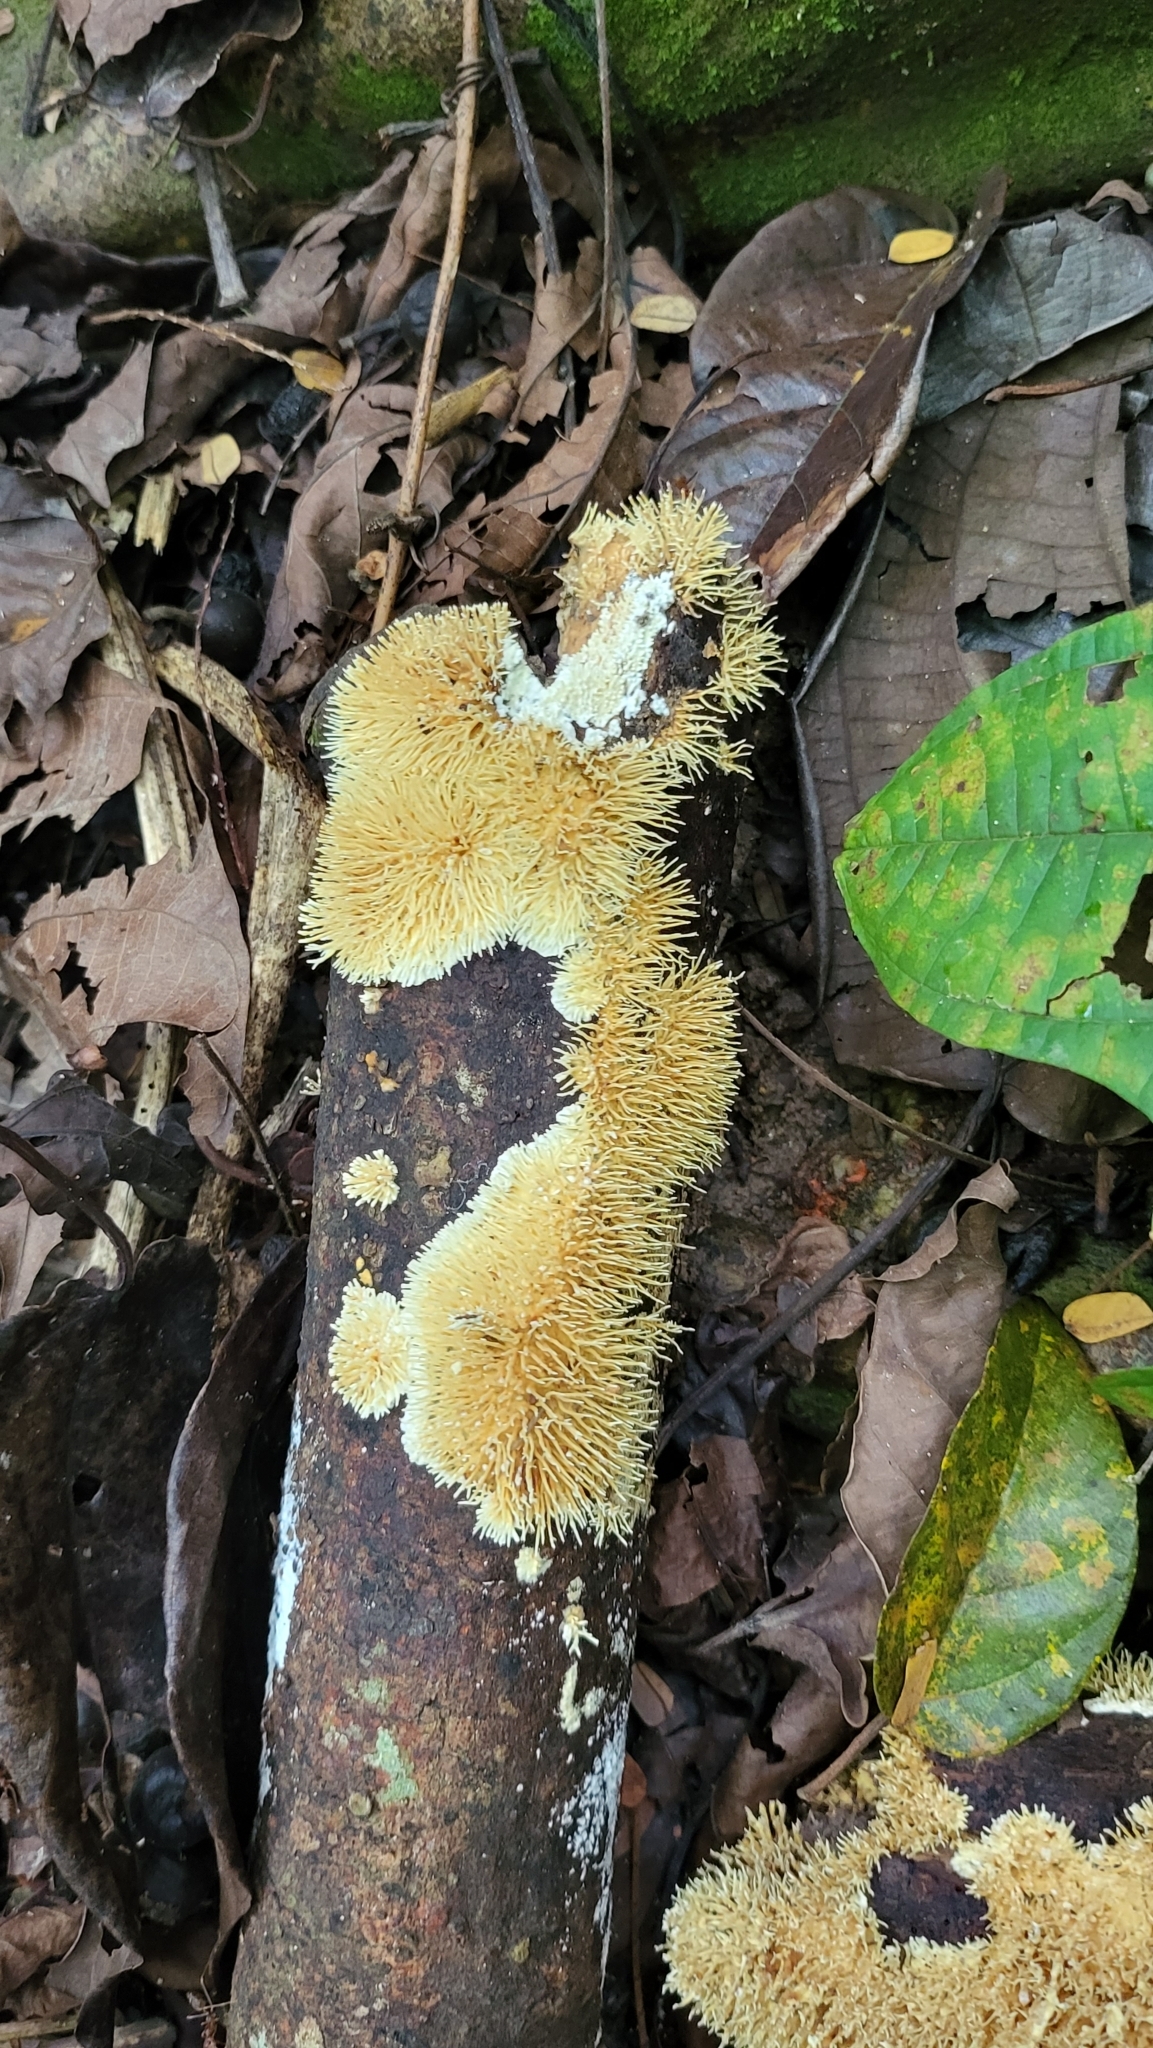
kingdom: Fungi
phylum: Basidiomycota
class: Agaricomycetes
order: Auriculariales
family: Auriculariaceae
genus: Elmerina
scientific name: Elmerina sclerodontia
